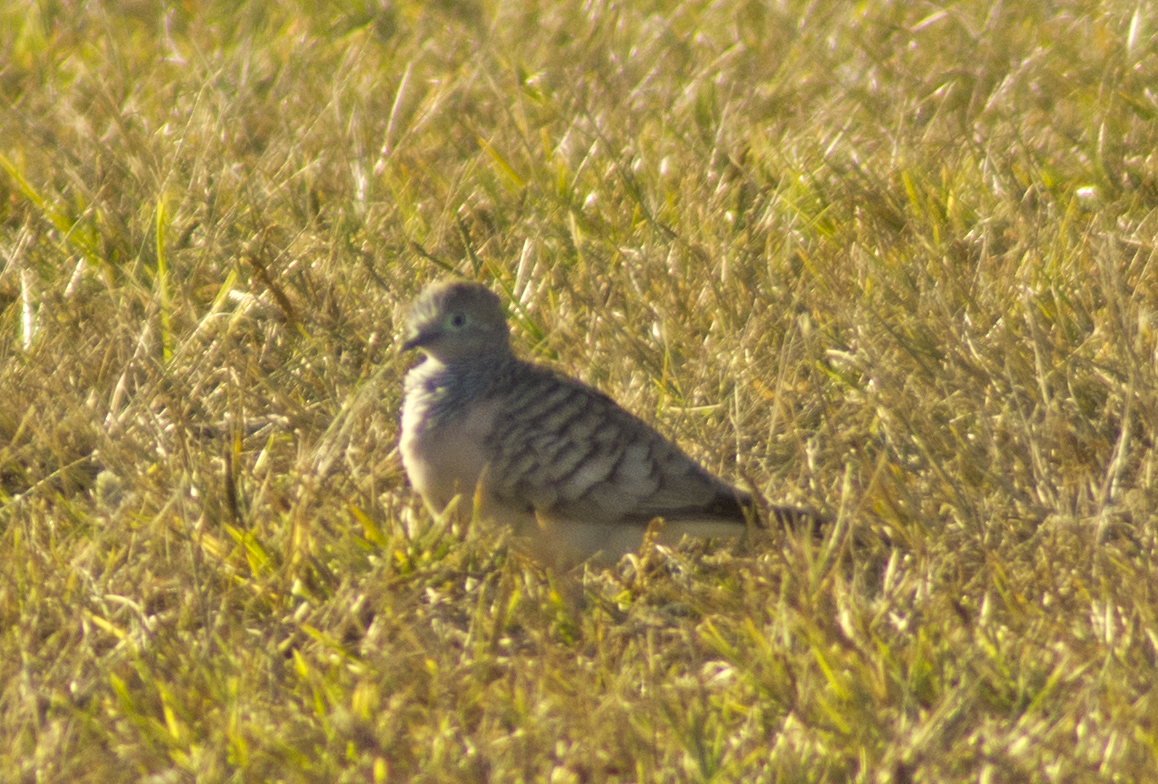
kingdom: Animalia
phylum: Chordata
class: Aves
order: Columbiformes
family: Columbidae
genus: Geopelia
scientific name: Geopelia placida
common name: Peaceful dove
